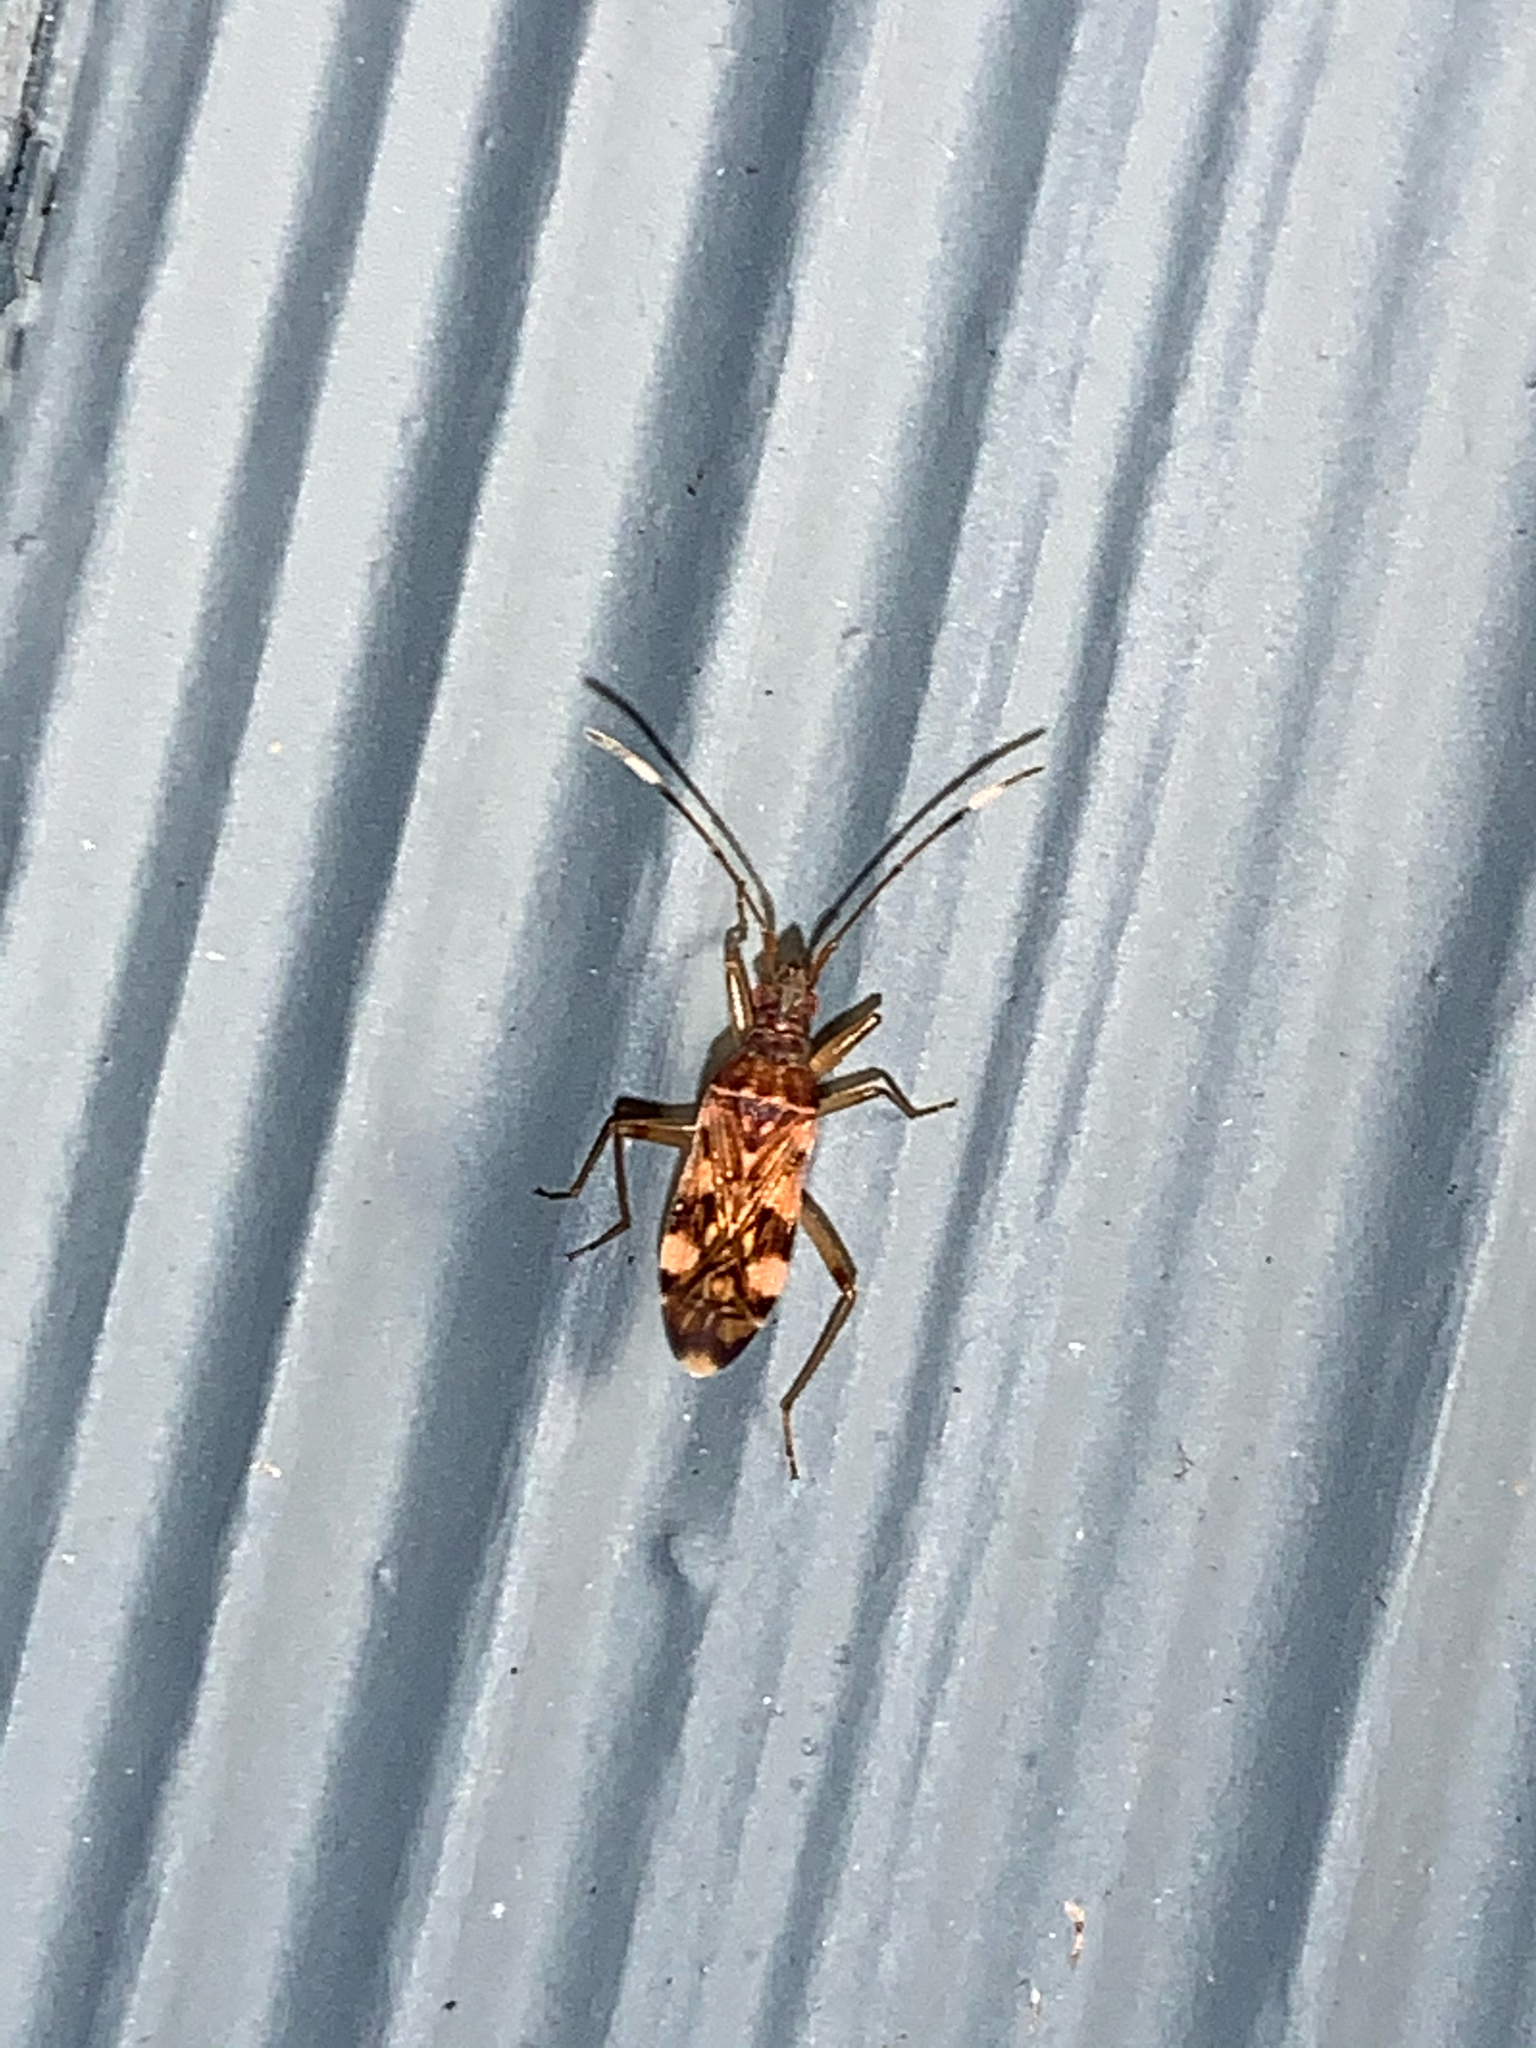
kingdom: Animalia
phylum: Arthropoda
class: Insecta
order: Hemiptera
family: Rhyparochromidae
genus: Ozophora
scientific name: Ozophora picturata
